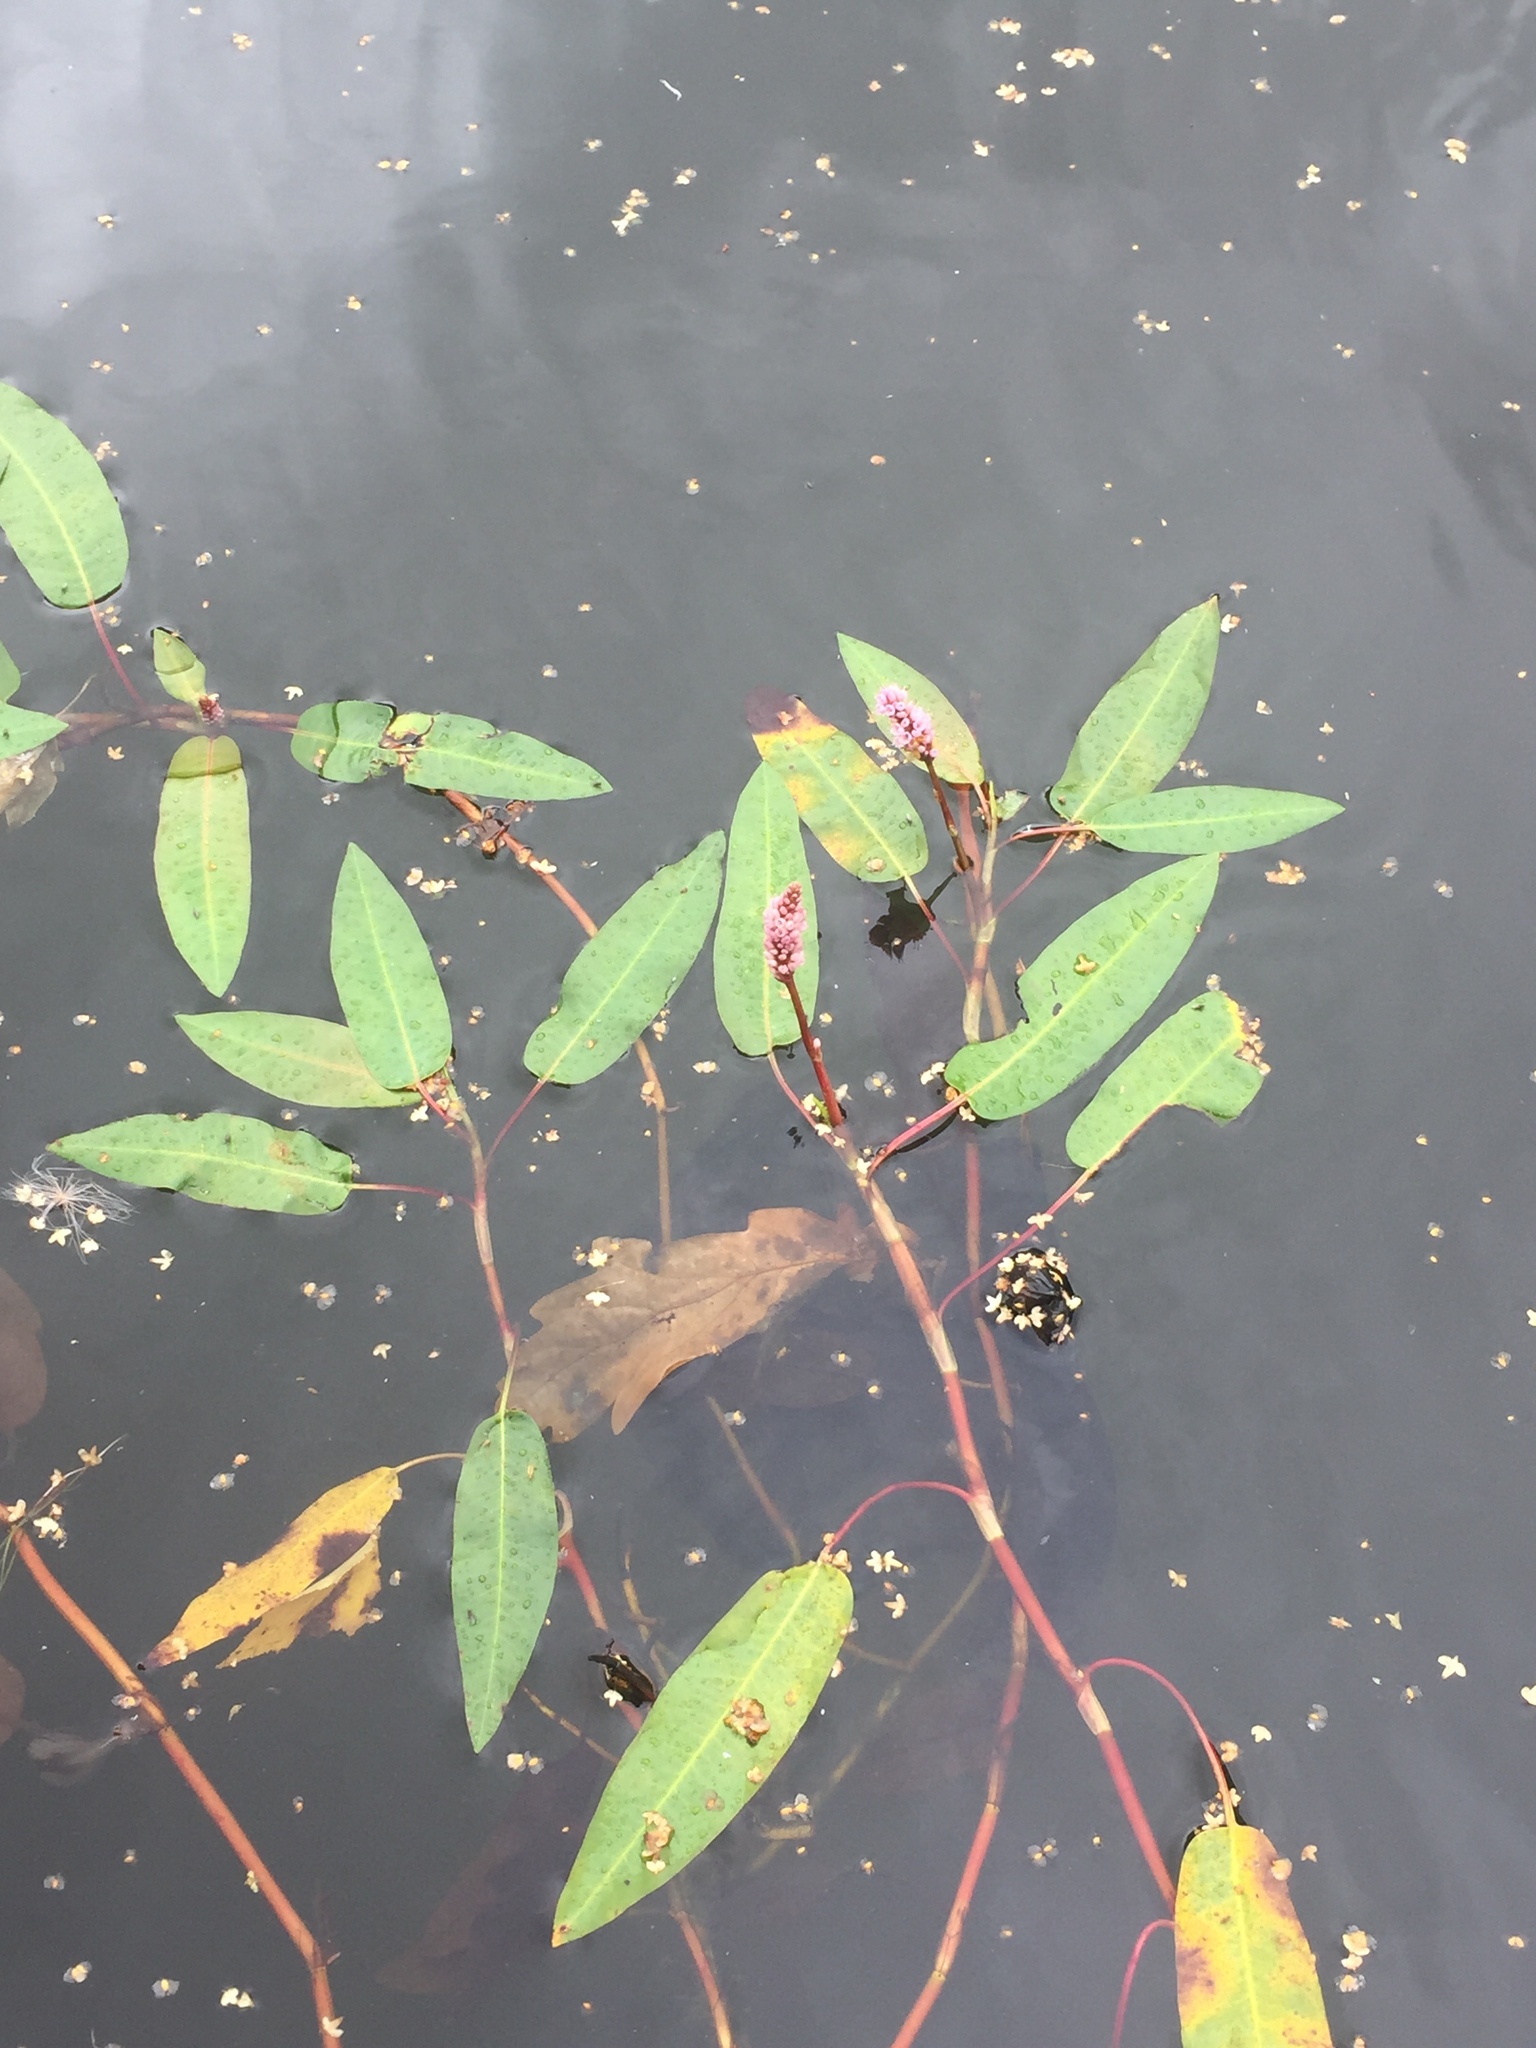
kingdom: Plantae
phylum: Tracheophyta
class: Magnoliopsida
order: Caryophyllales
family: Polygonaceae
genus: Persicaria
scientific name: Persicaria amphibia
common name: Amphibious bistort
